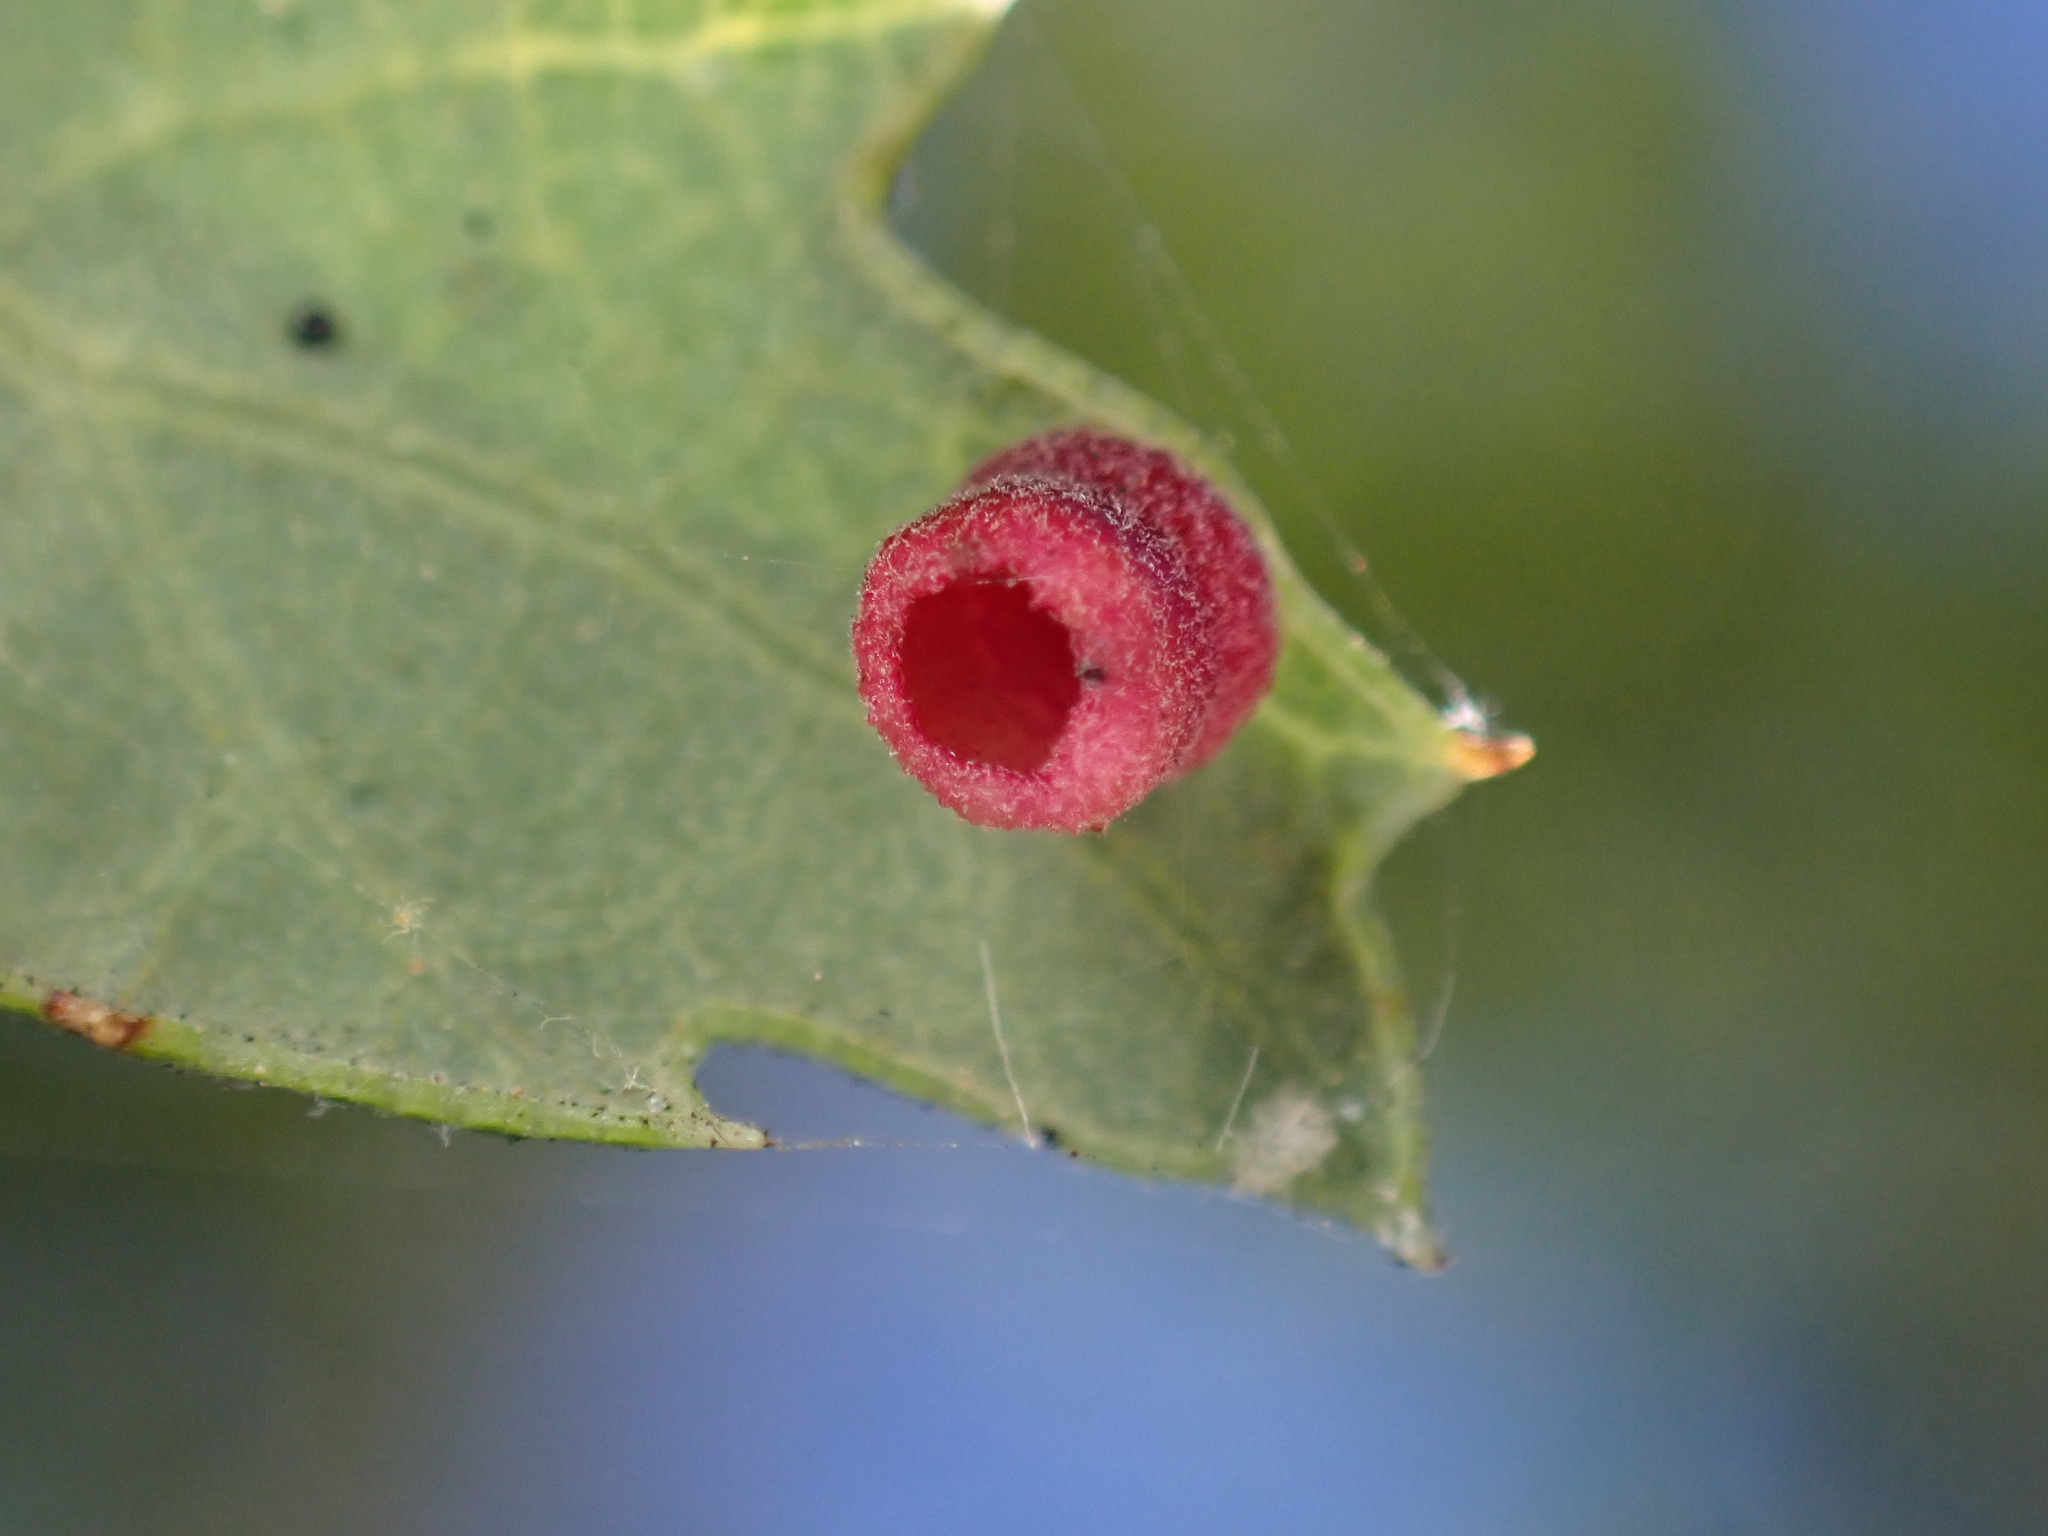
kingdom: Animalia
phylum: Arthropoda
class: Insecta
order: Hymenoptera
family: Cynipidae
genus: Phylloteras
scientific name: Phylloteras
